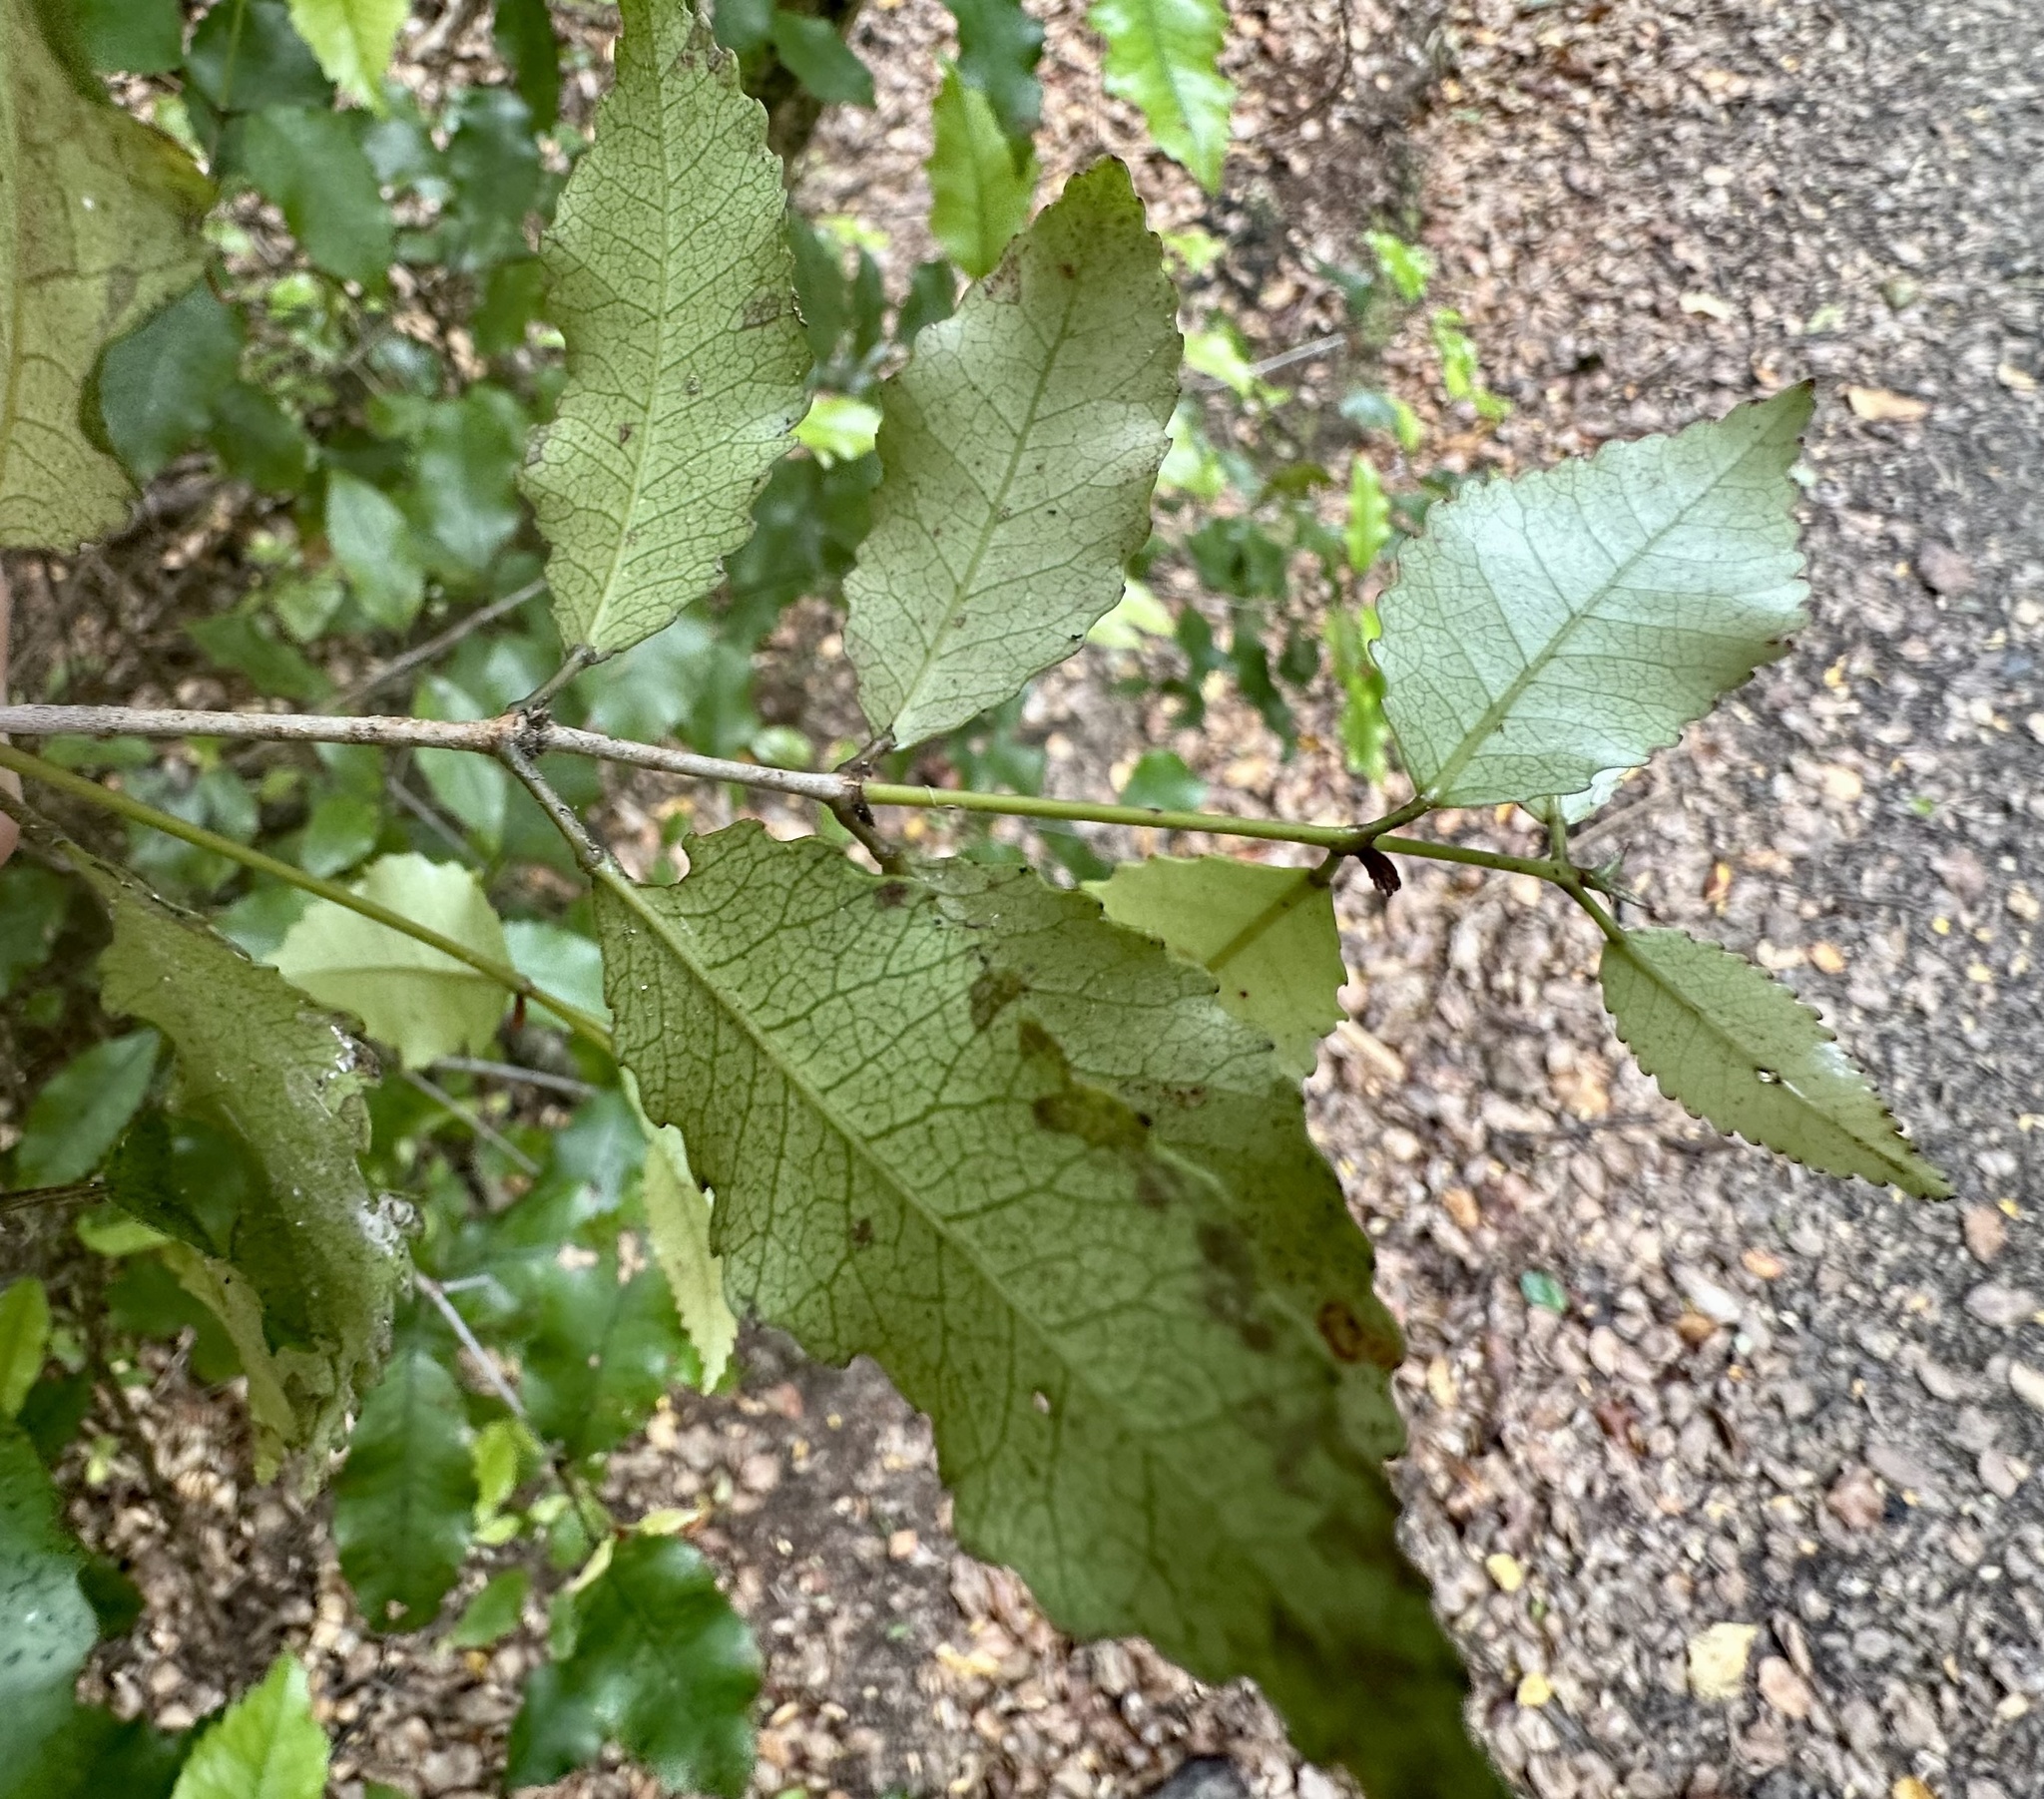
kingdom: Plantae
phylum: Tracheophyta
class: Magnoliopsida
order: Oxalidales
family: Cunoniaceae
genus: Pterophylla
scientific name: Pterophylla racemosa
